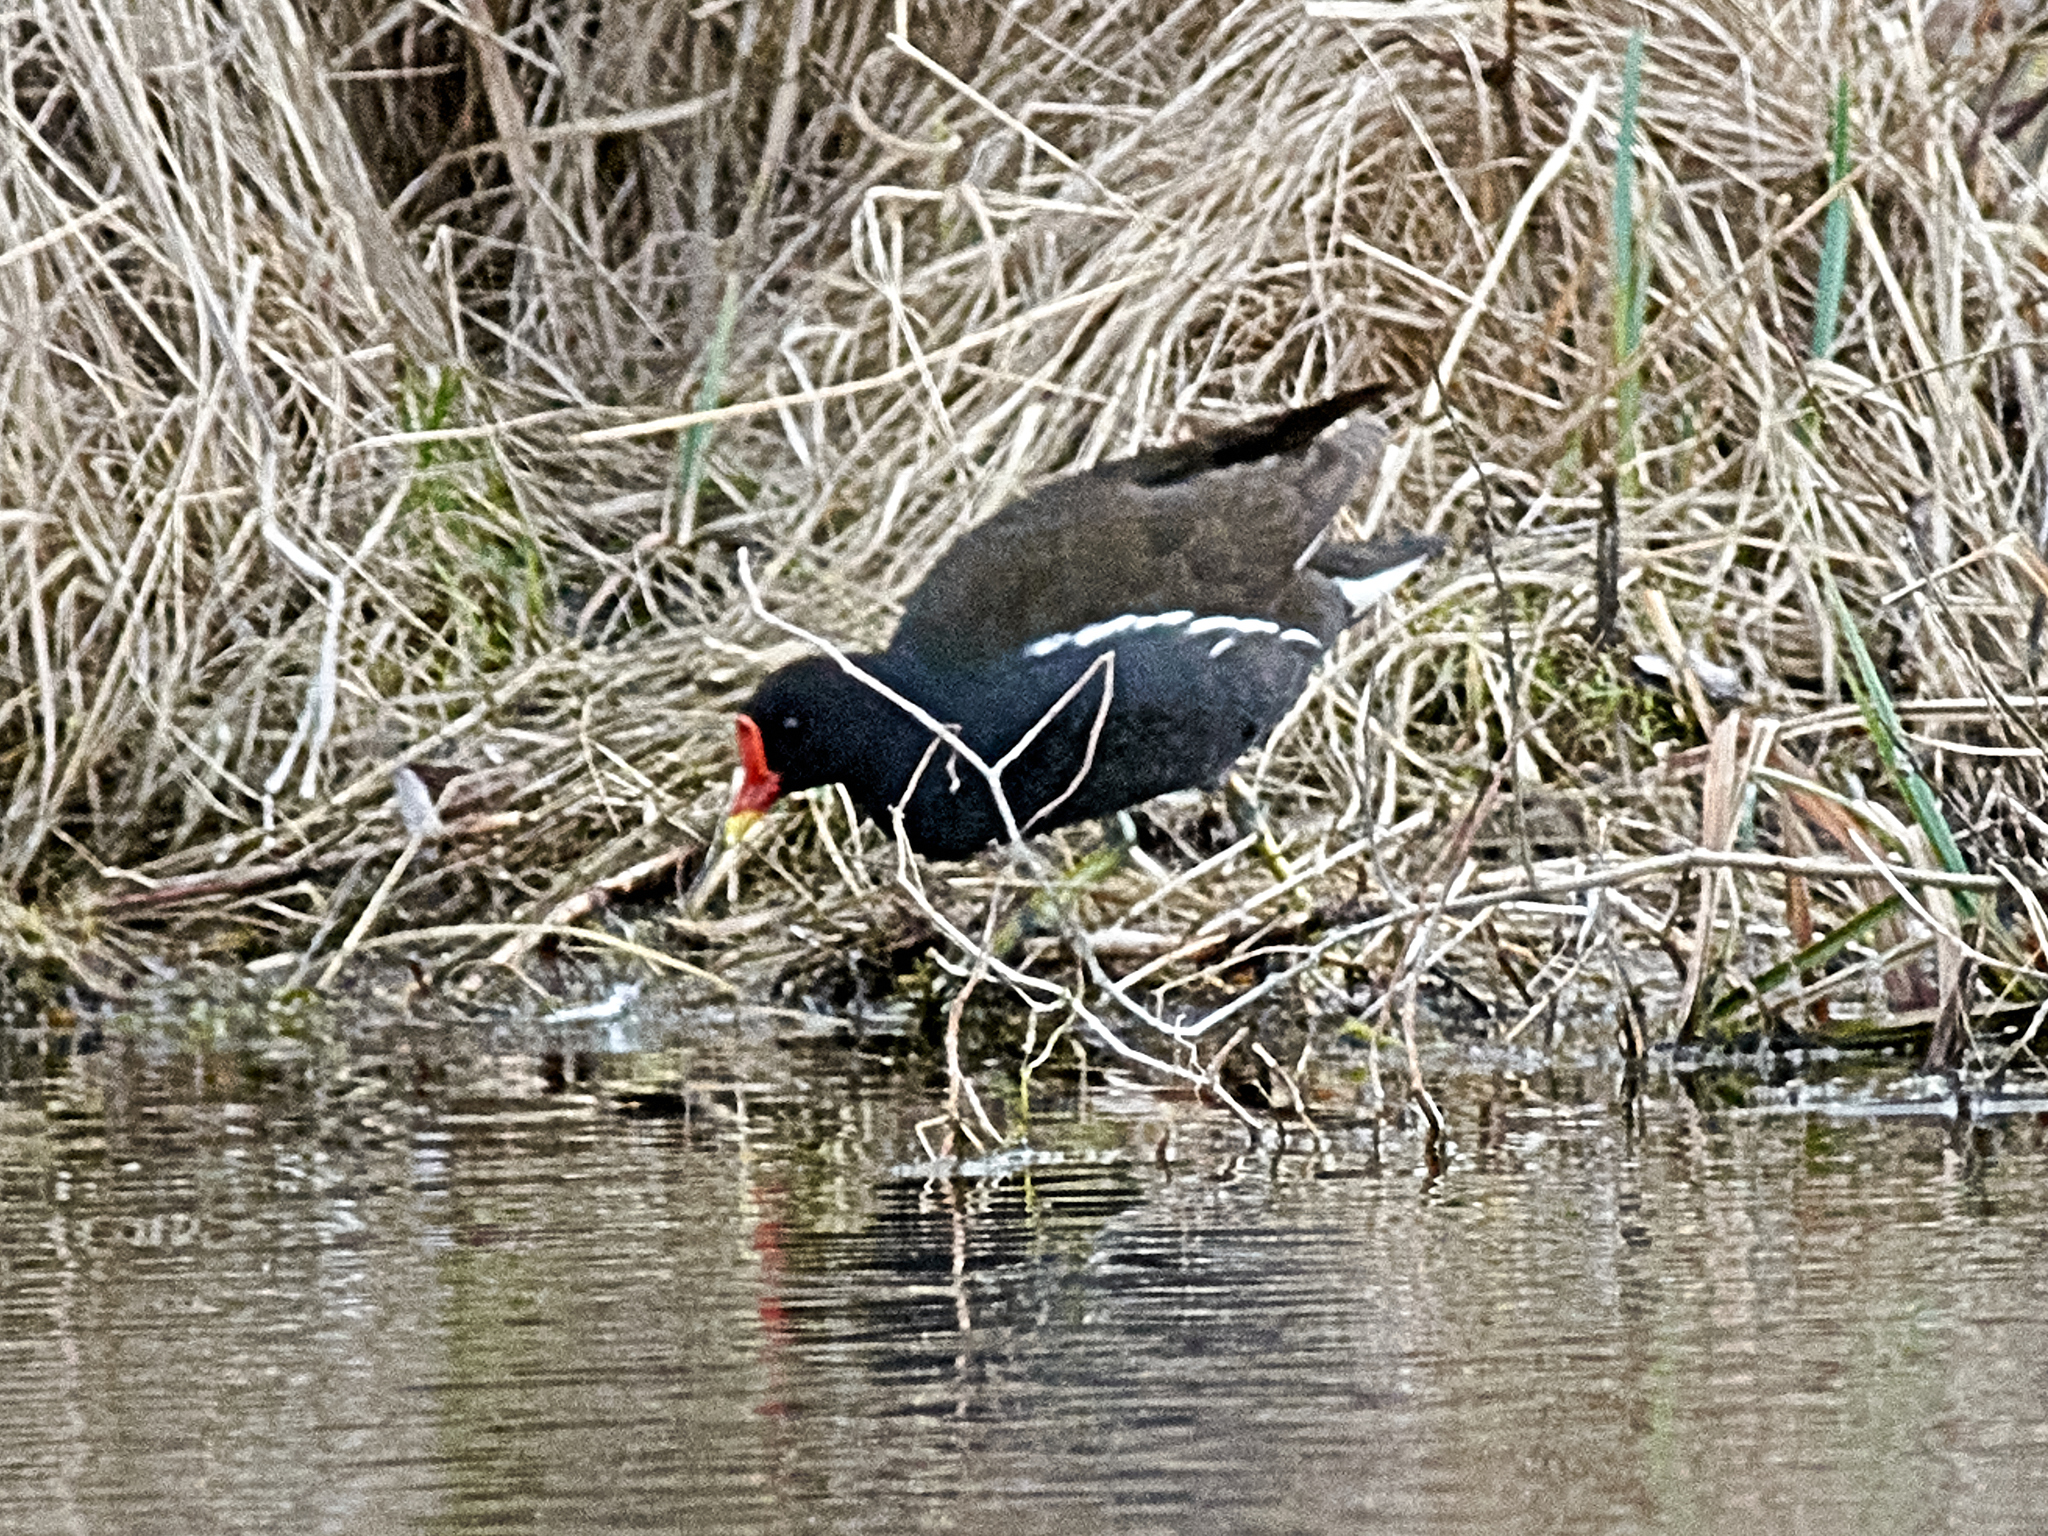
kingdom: Animalia
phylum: Chordata
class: Aves
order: Gruiformes
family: Rallidae
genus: Gallinula
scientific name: Gallinula chloropus
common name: Common moorhen
